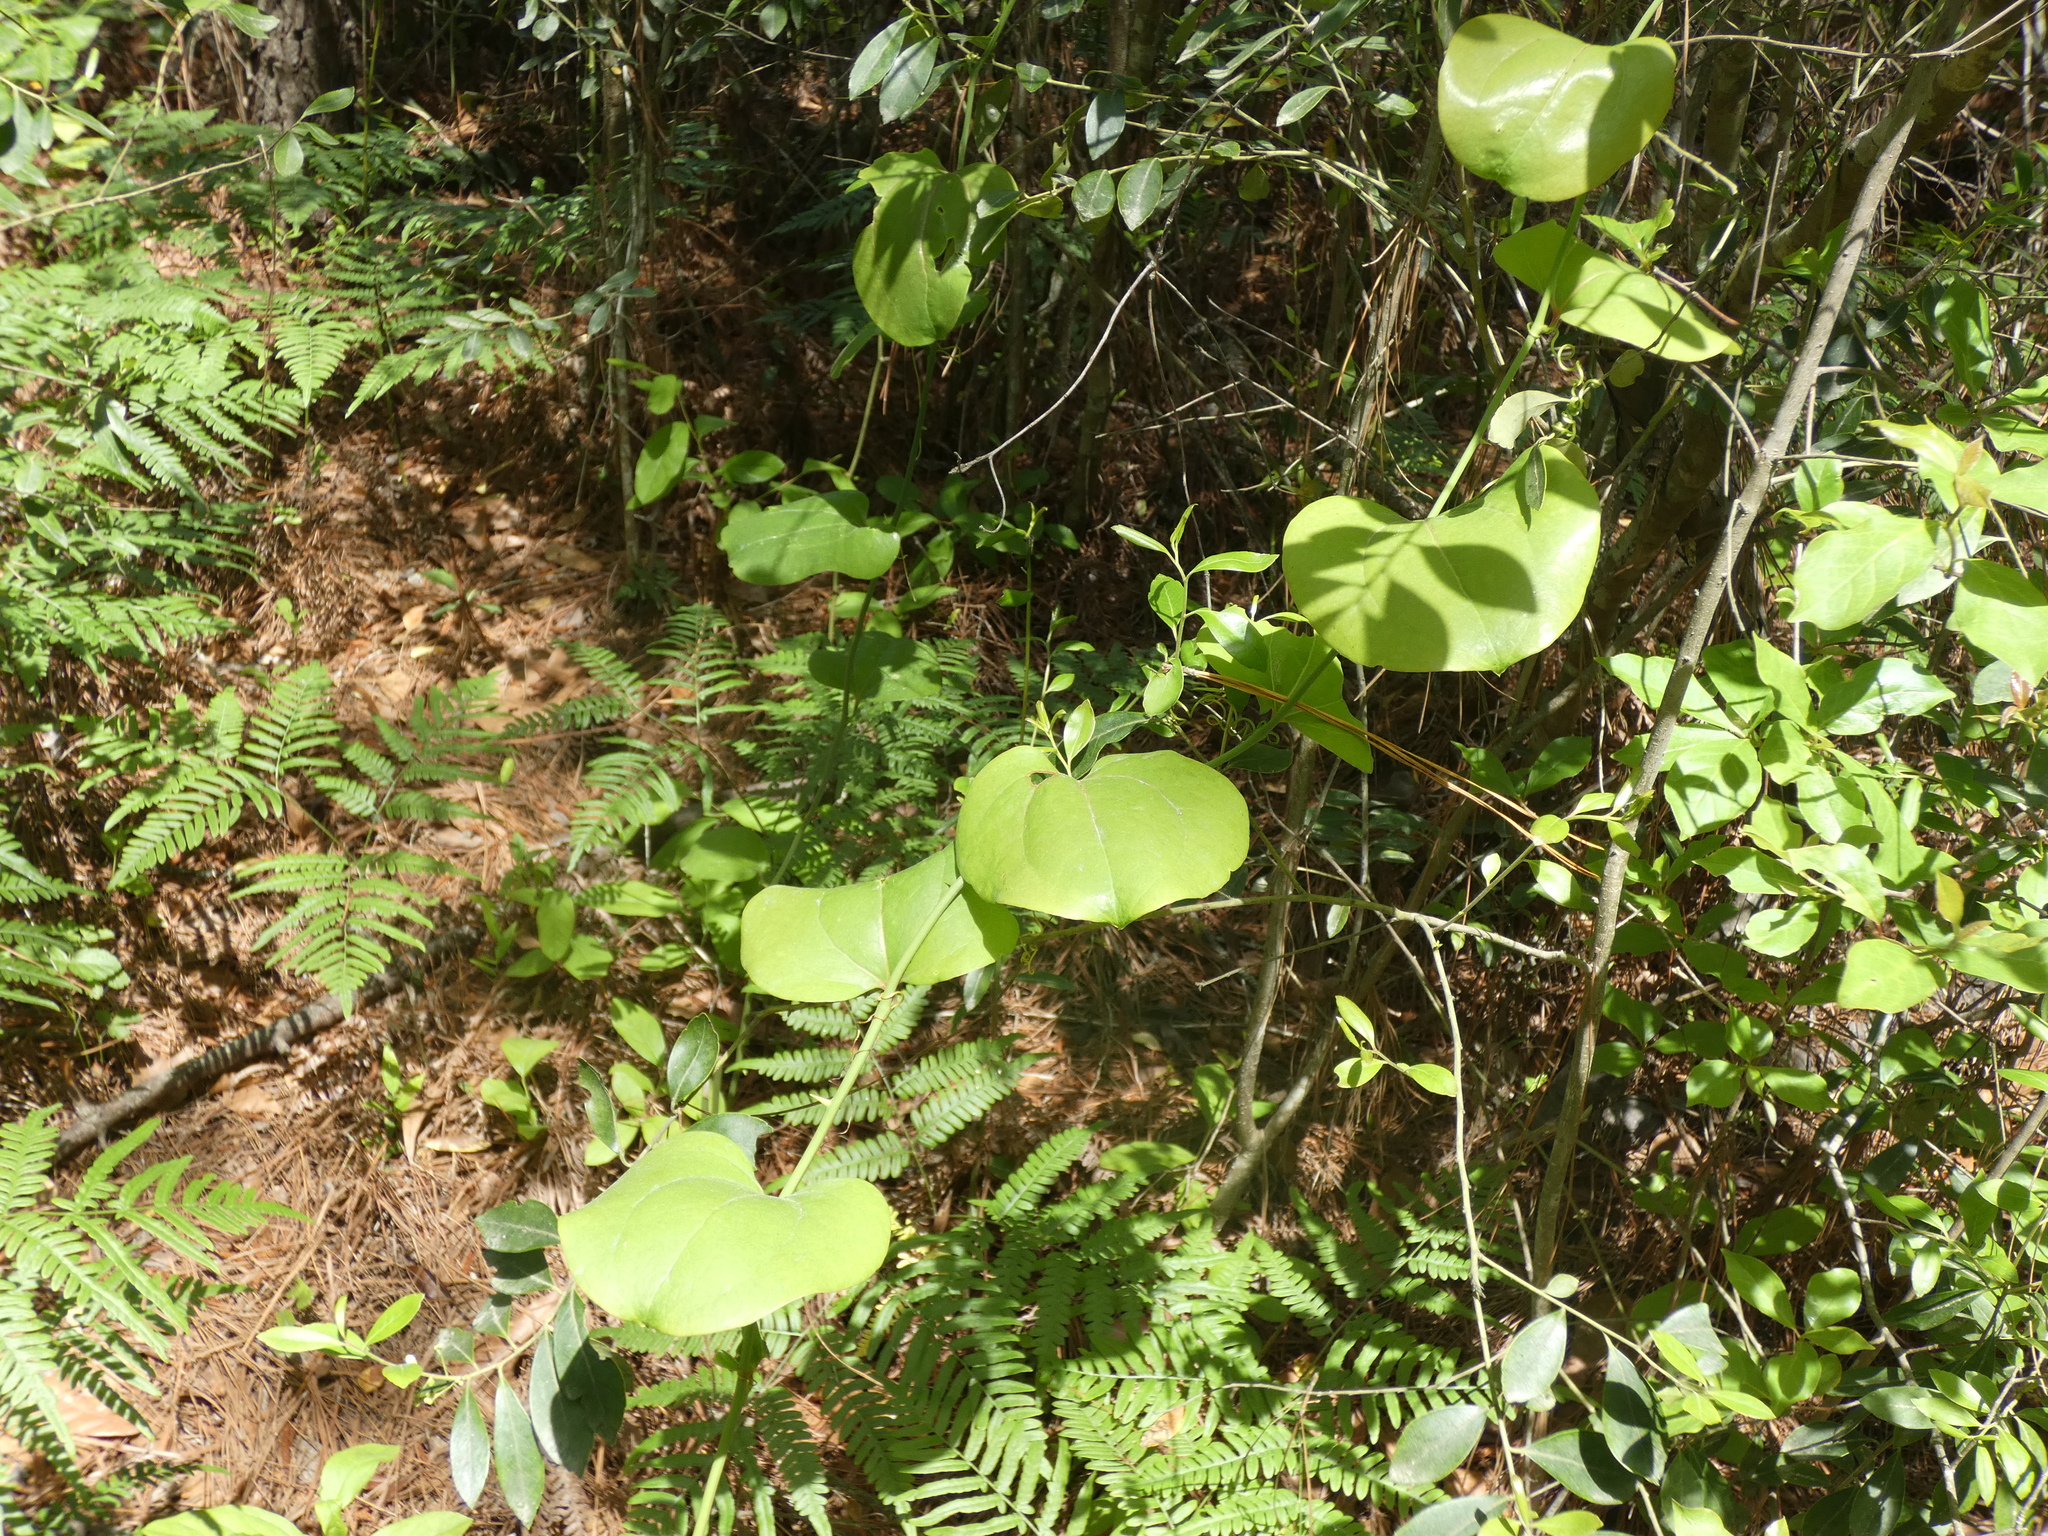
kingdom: Plantae
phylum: Tracheophyta
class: Liliopsida
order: Liliales
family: Smilacaceae
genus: Smilax
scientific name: Smilax rotundifolia
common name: Bullbriar
